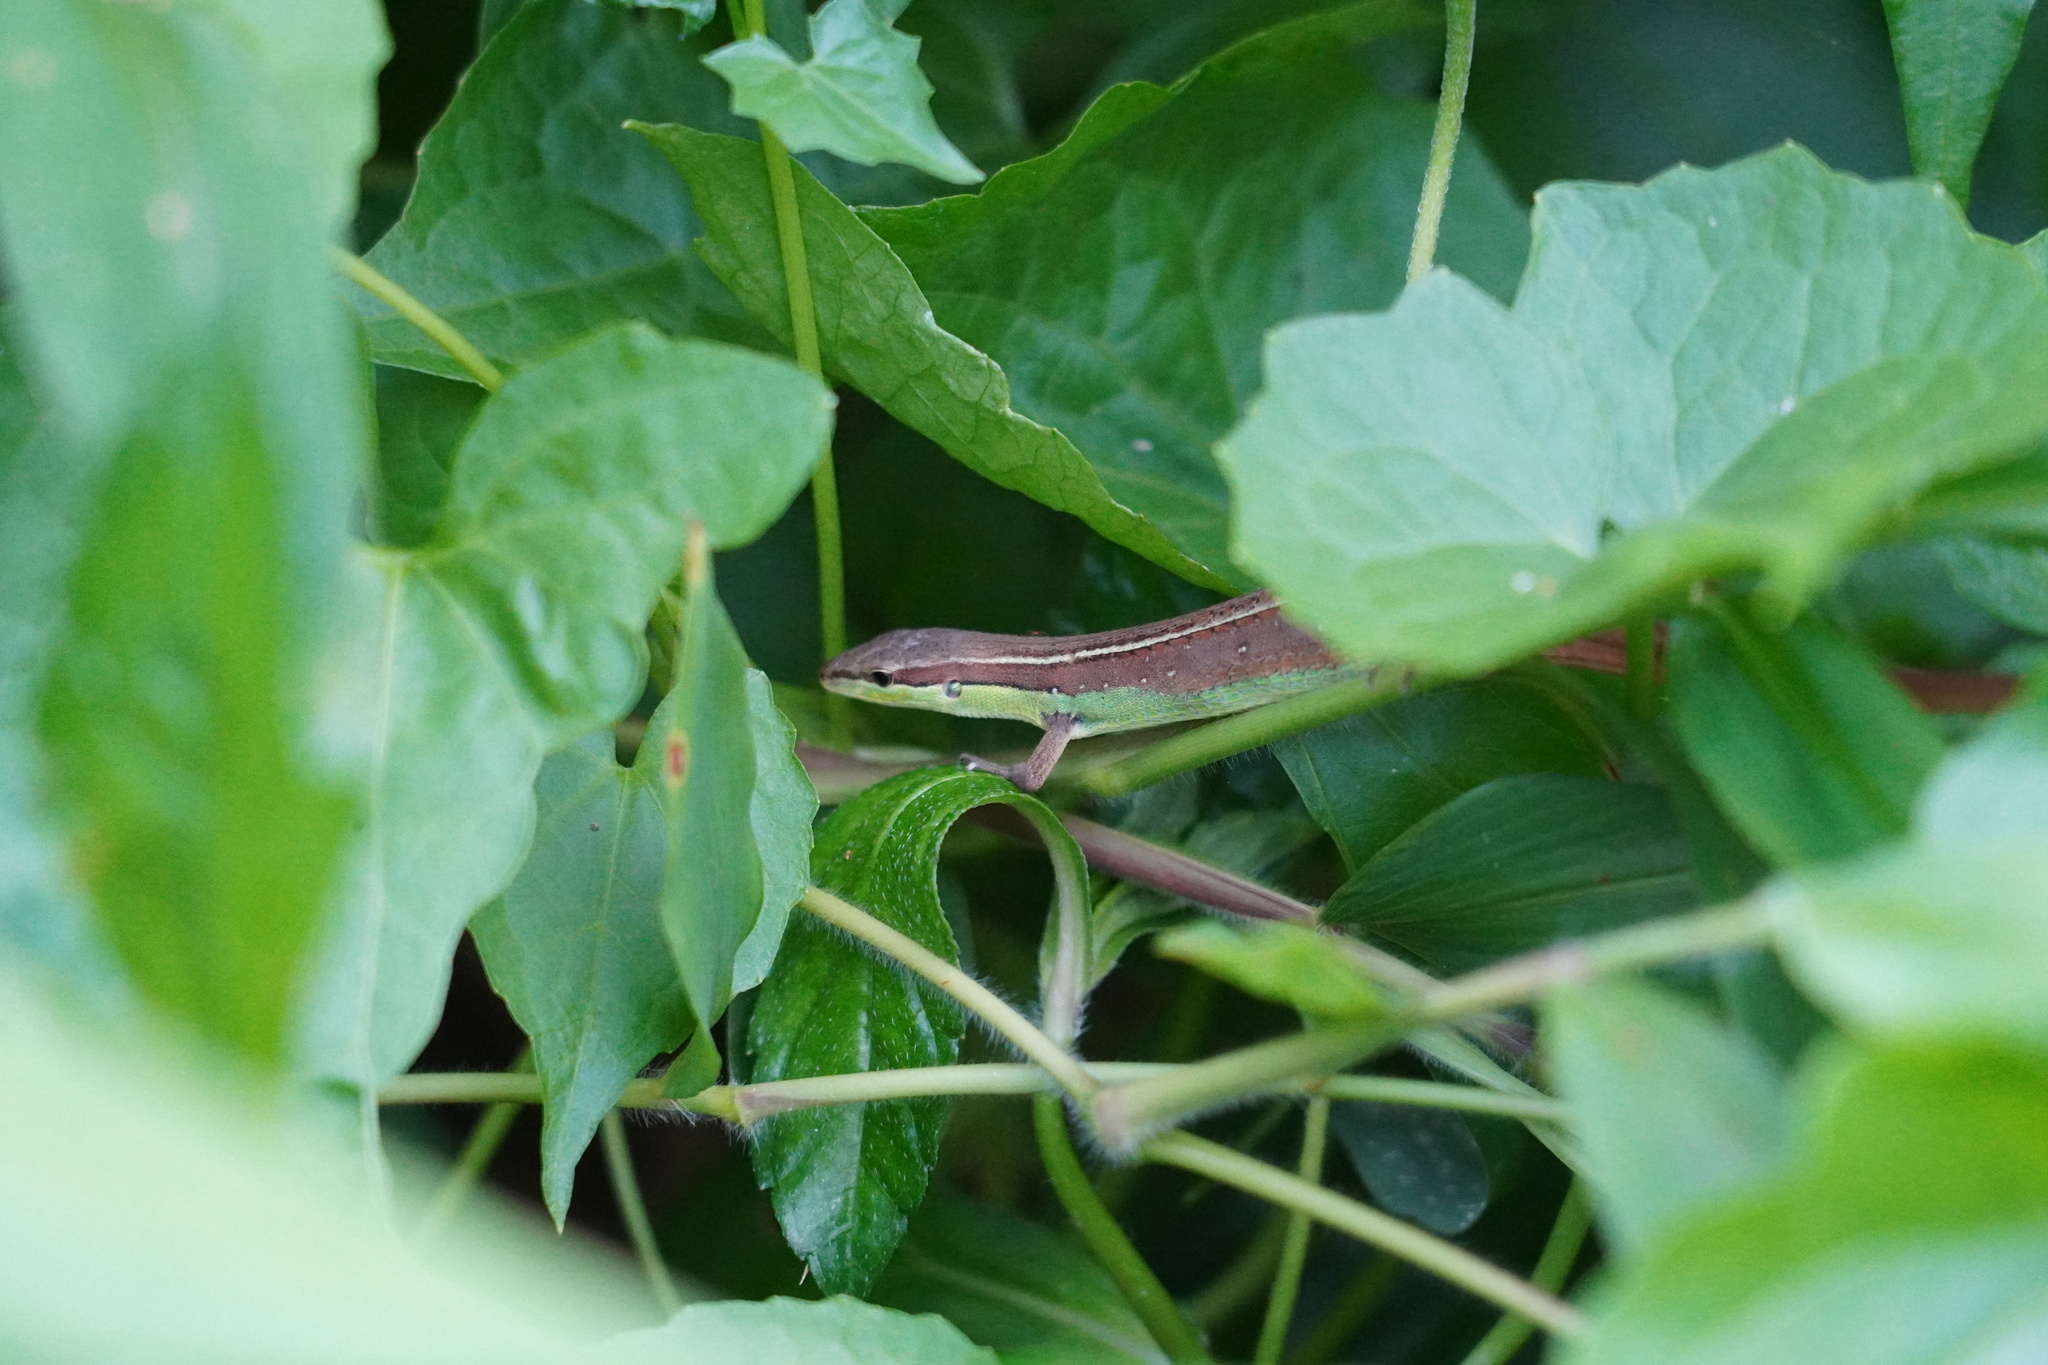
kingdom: Animalia
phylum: Chordata
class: Squamata
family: Lacertidae
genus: Takydromus
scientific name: Takydromus sexlineatus
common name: Asian grass lizard
